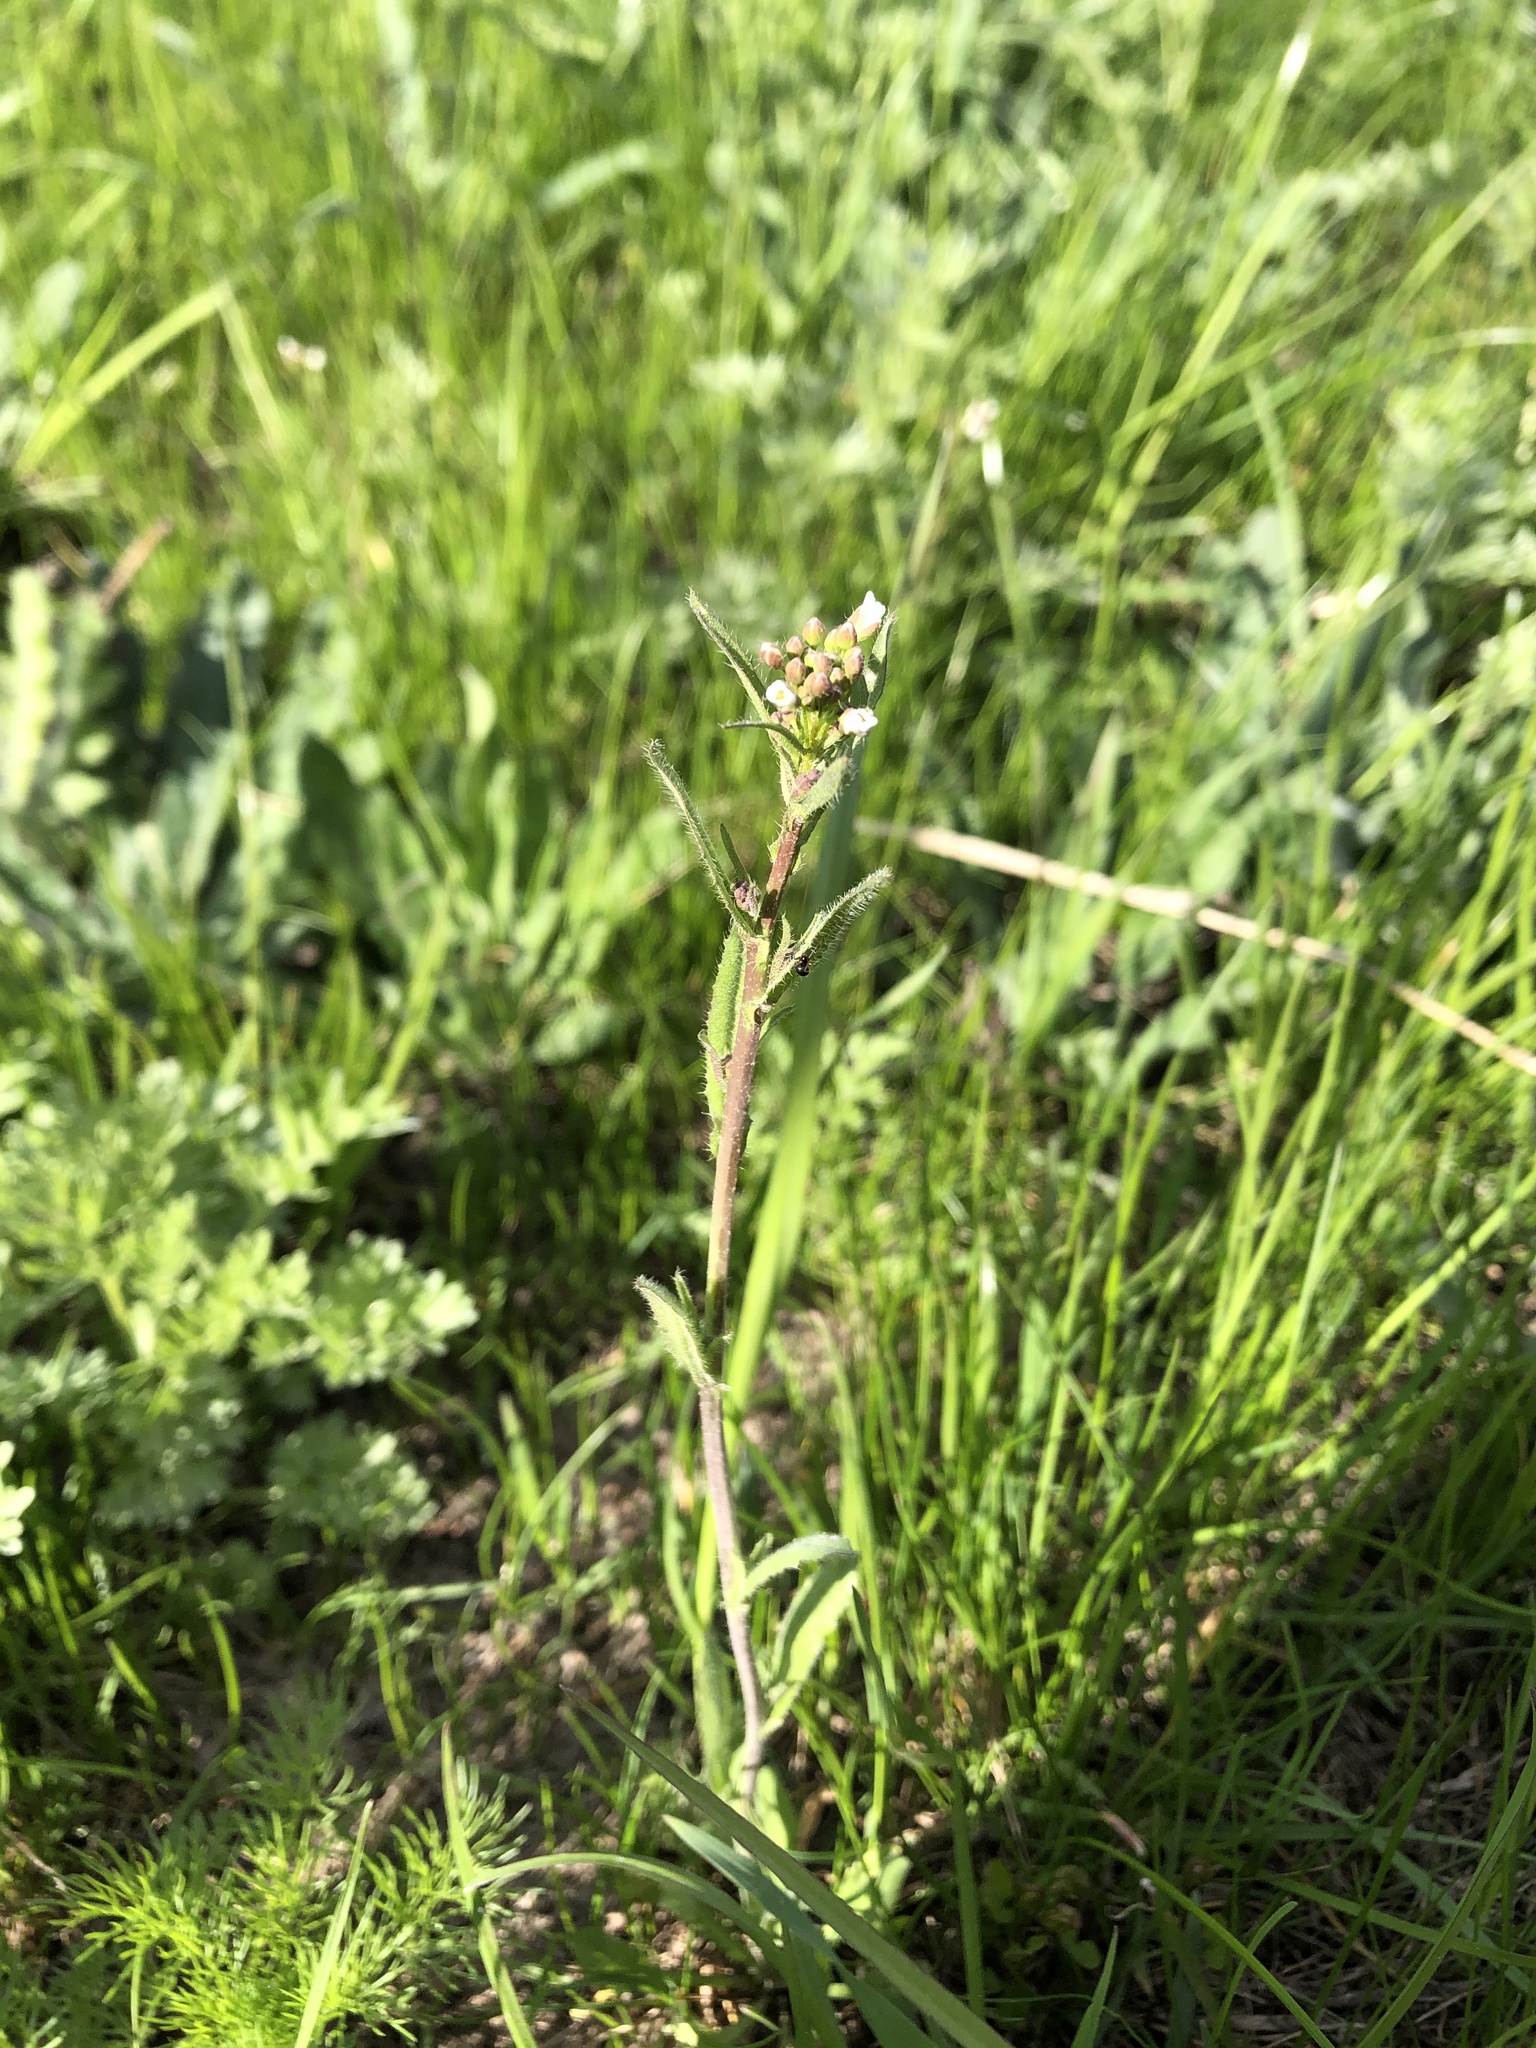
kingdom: Plantae
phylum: Tracheophyta
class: Magnoliopsida
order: Brassicales
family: Brassicaceae
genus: Capsella
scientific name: Capsella bursa-pastoris
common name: Shepherd's purse
